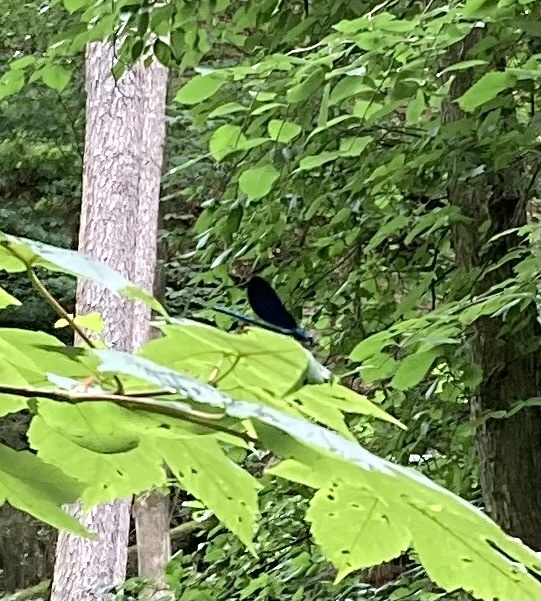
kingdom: Animalia
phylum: Arthropoda
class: Insecta
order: Odonata
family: Calopterygidae
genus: Calopteryx
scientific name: Calopteryx virgo
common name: Beautiful demoiselle
